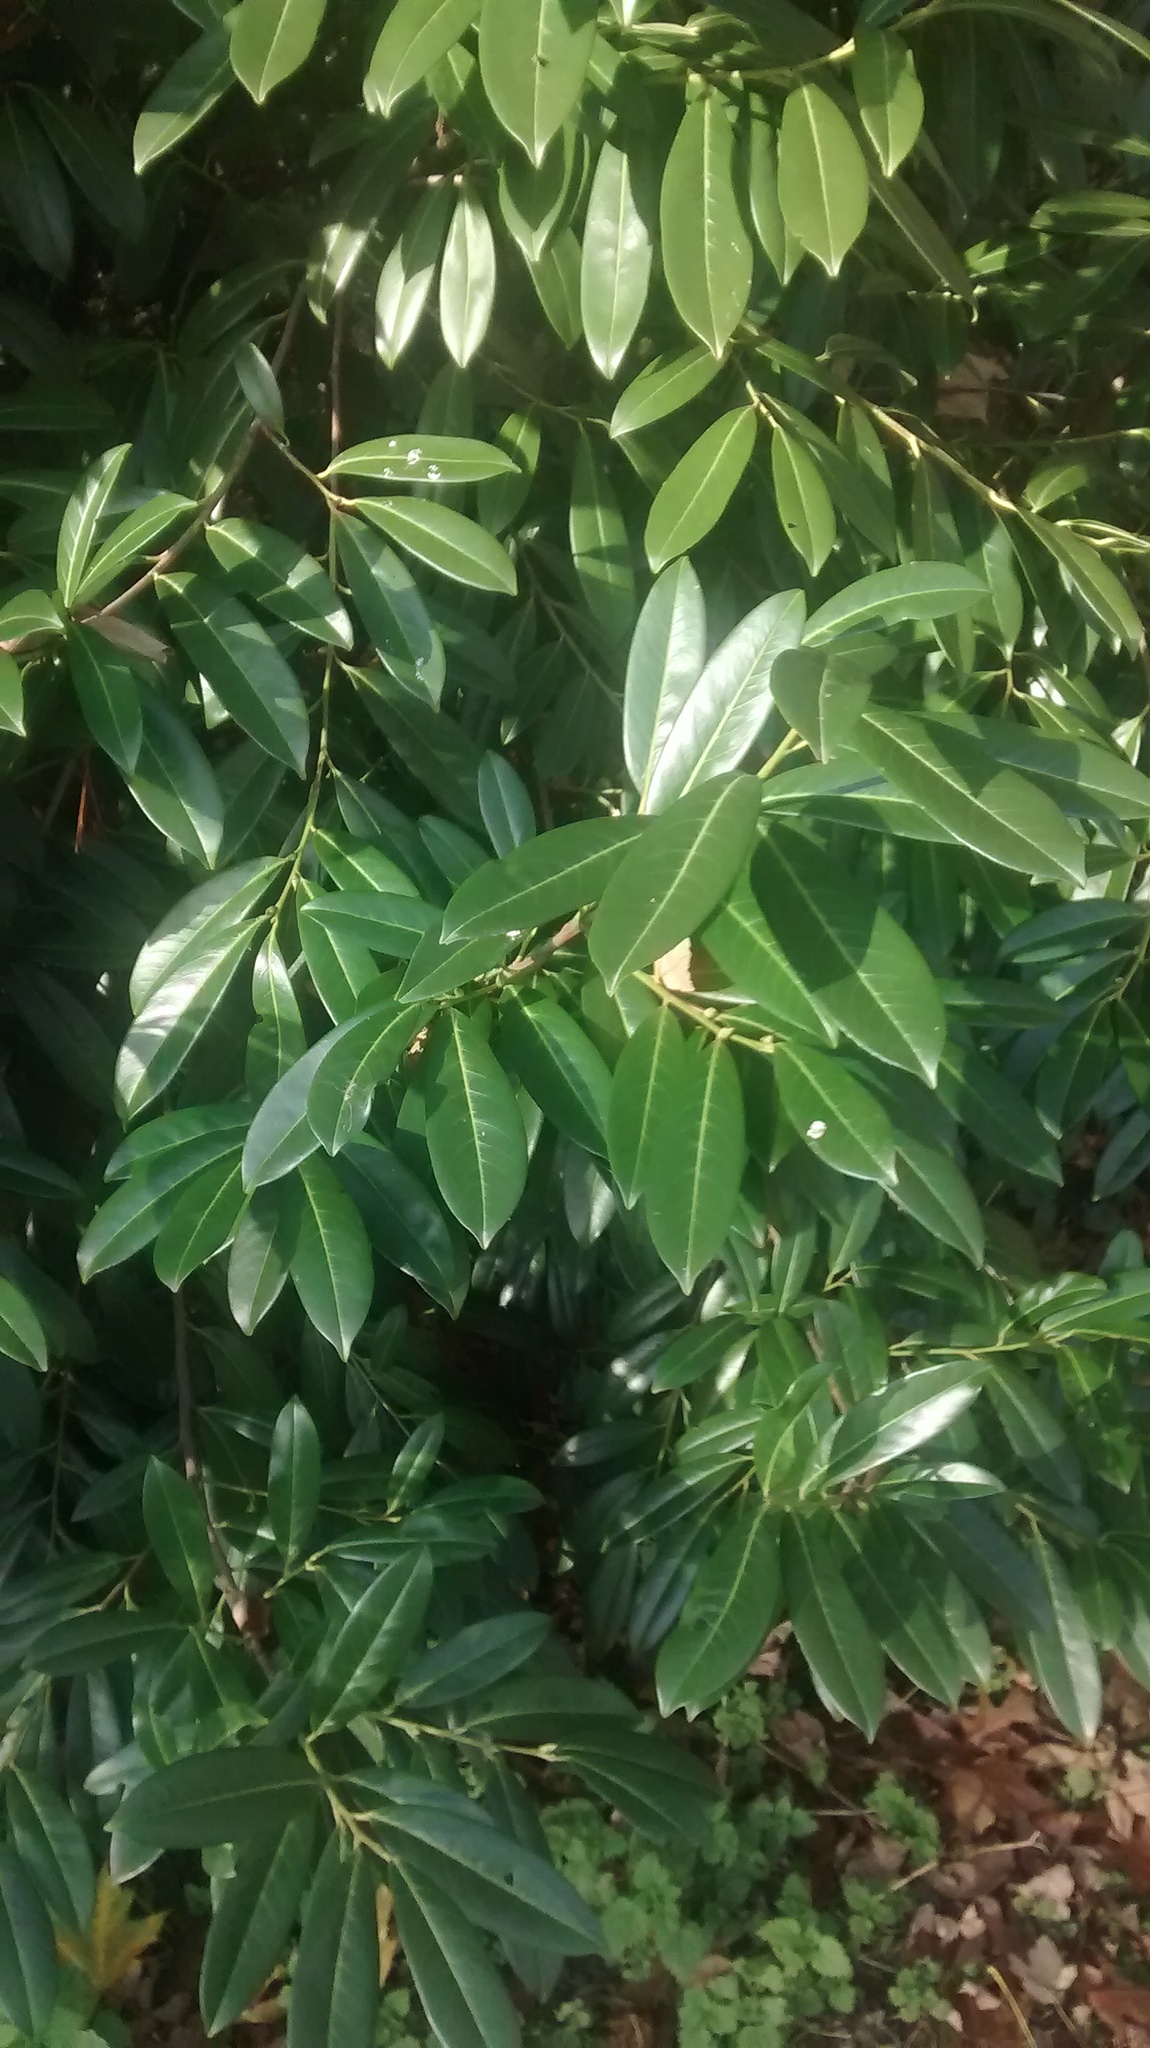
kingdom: Plantae
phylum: Tracheophyta
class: Magnoliopsida
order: Rosales
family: Rosaceae
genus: Prunus
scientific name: Prunus laurocerasus
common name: Cherry laurel
